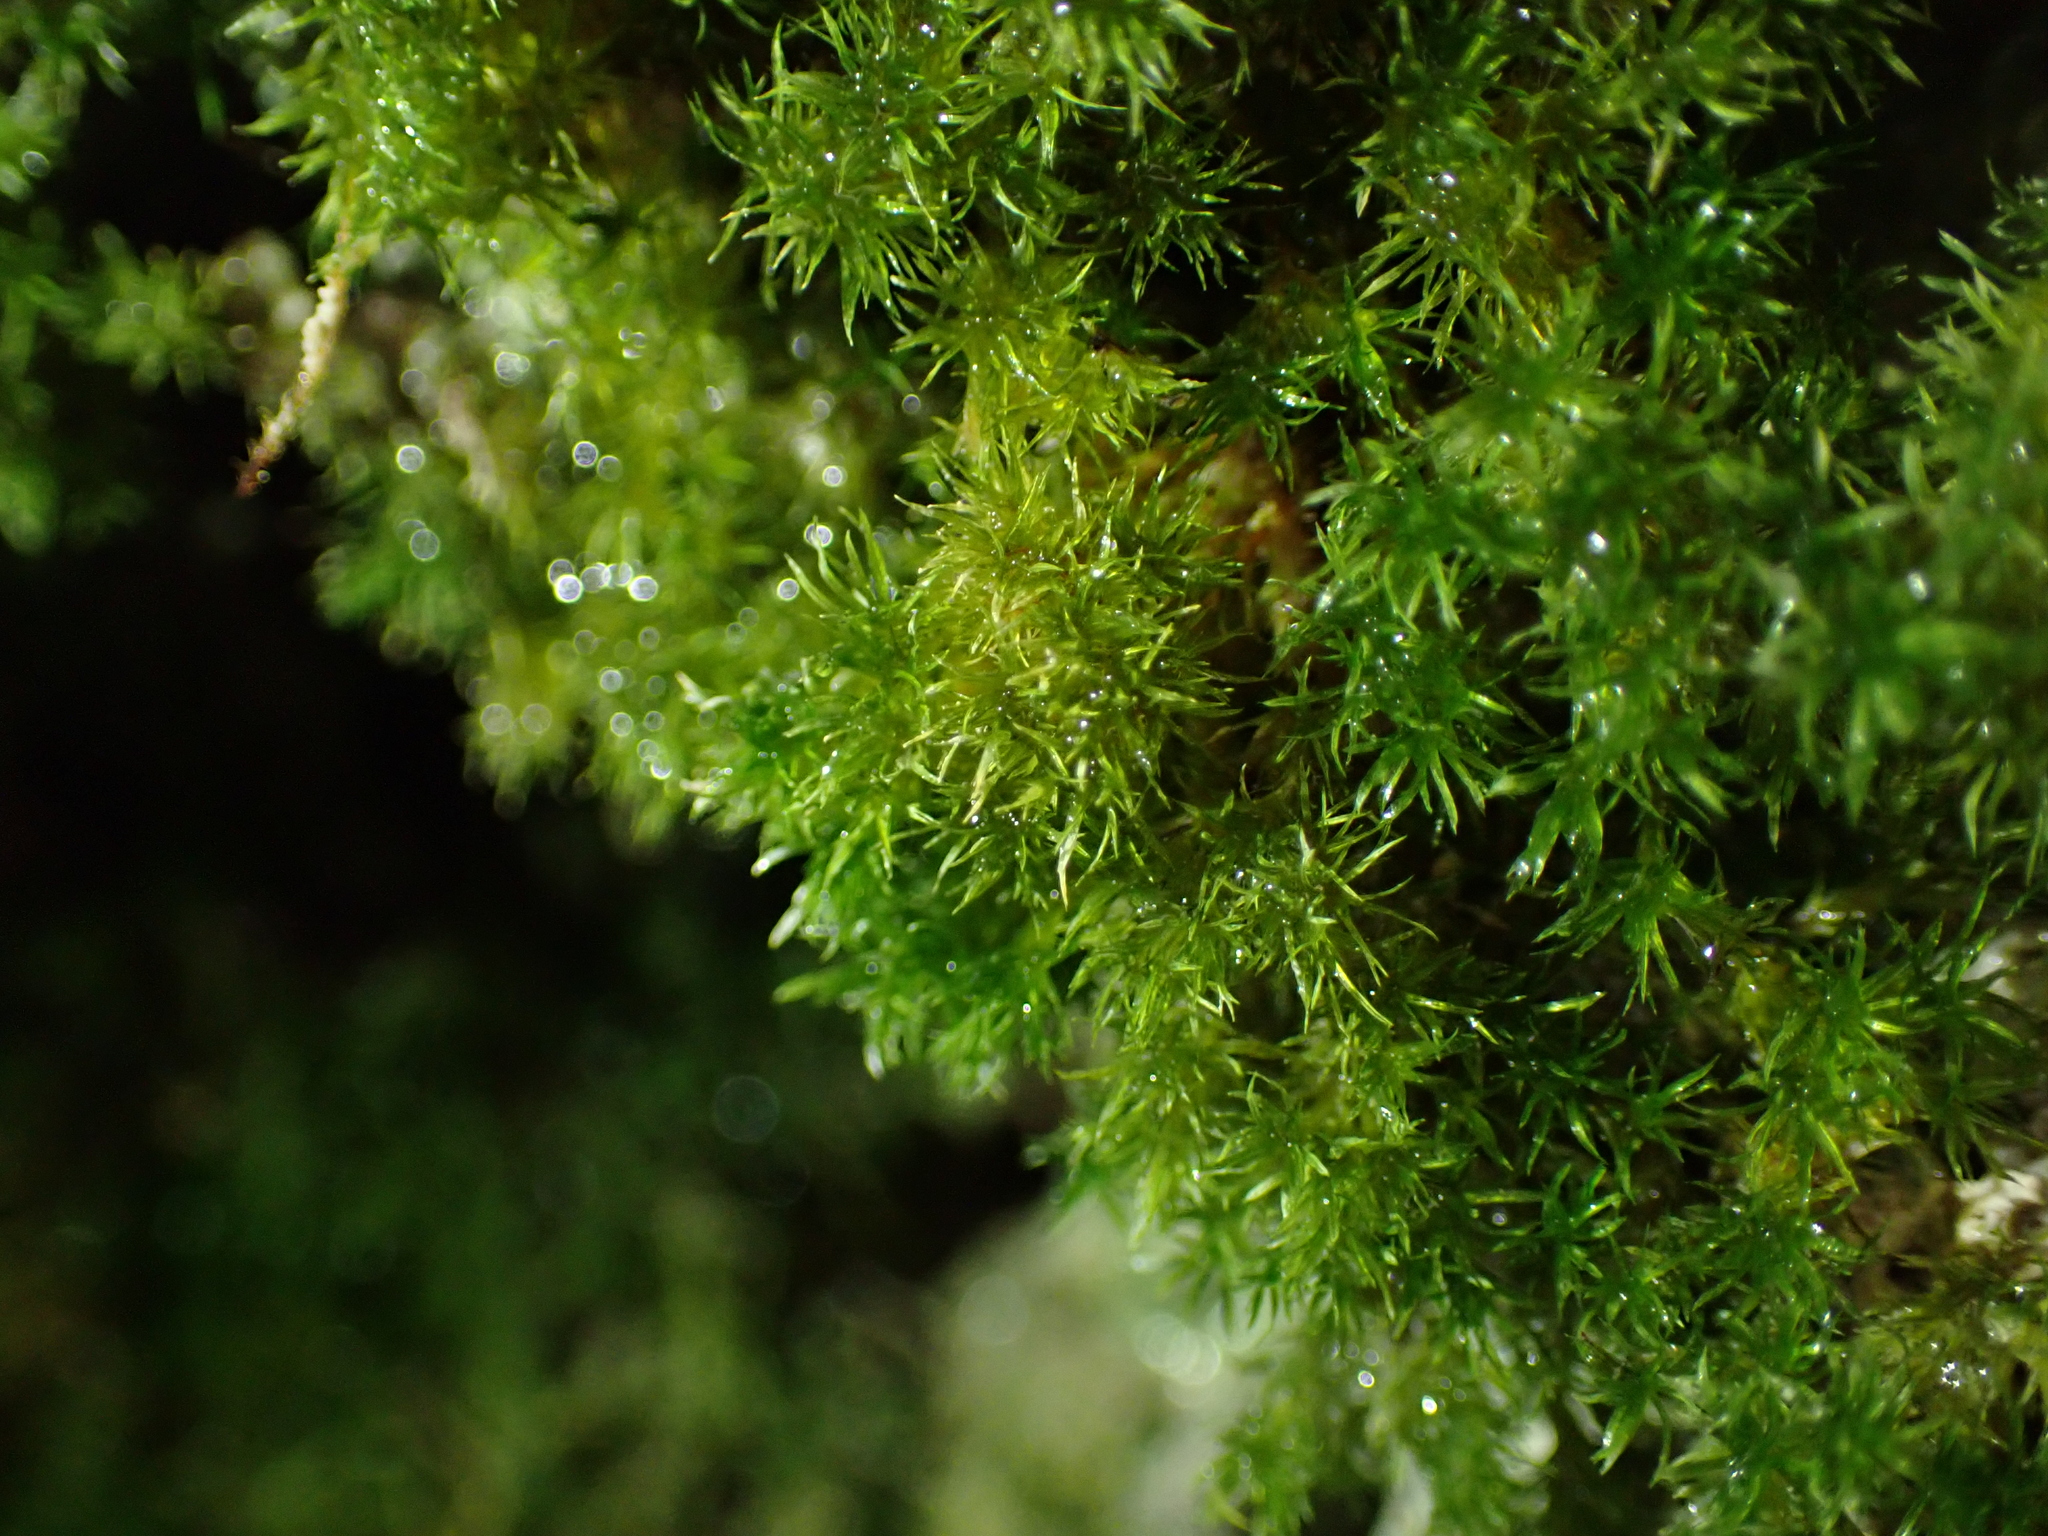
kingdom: Plantae
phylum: Bryophyta
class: Bryopsida
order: Pottiales
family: Pottiaceae
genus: Eucladium
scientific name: Eucladium verticillatum
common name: Whorled tufa-moss
